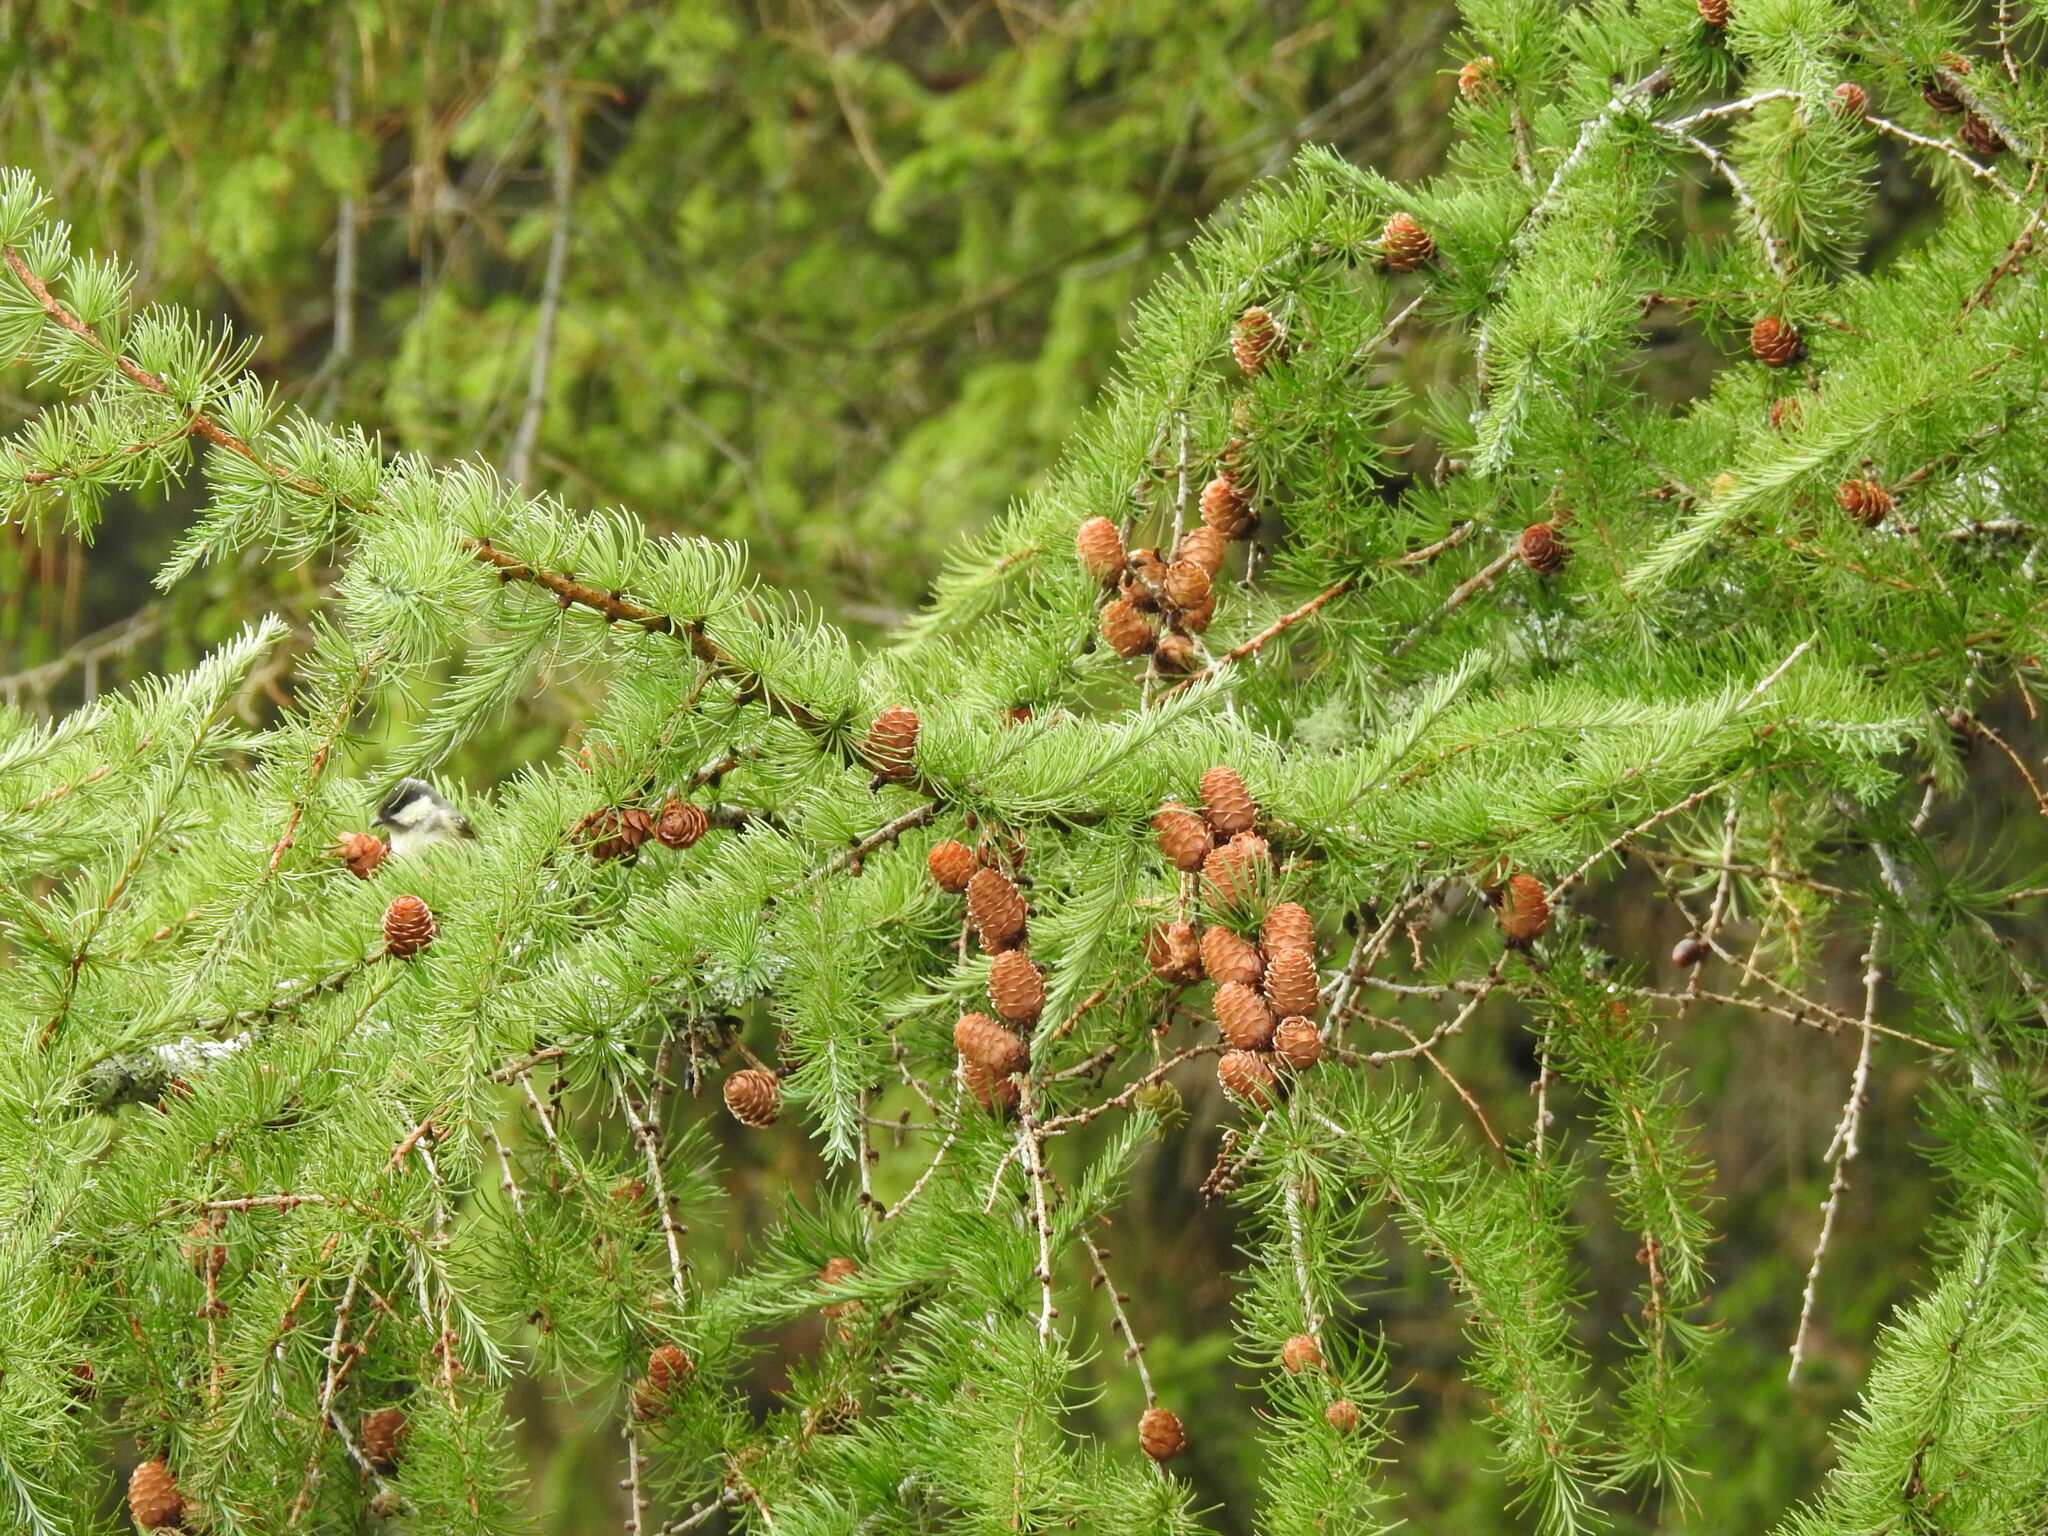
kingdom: Animalia
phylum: Chordata
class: Aves
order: Passeriformes
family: Paridae
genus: Periparus
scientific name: Periparus ater
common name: Coal tit
